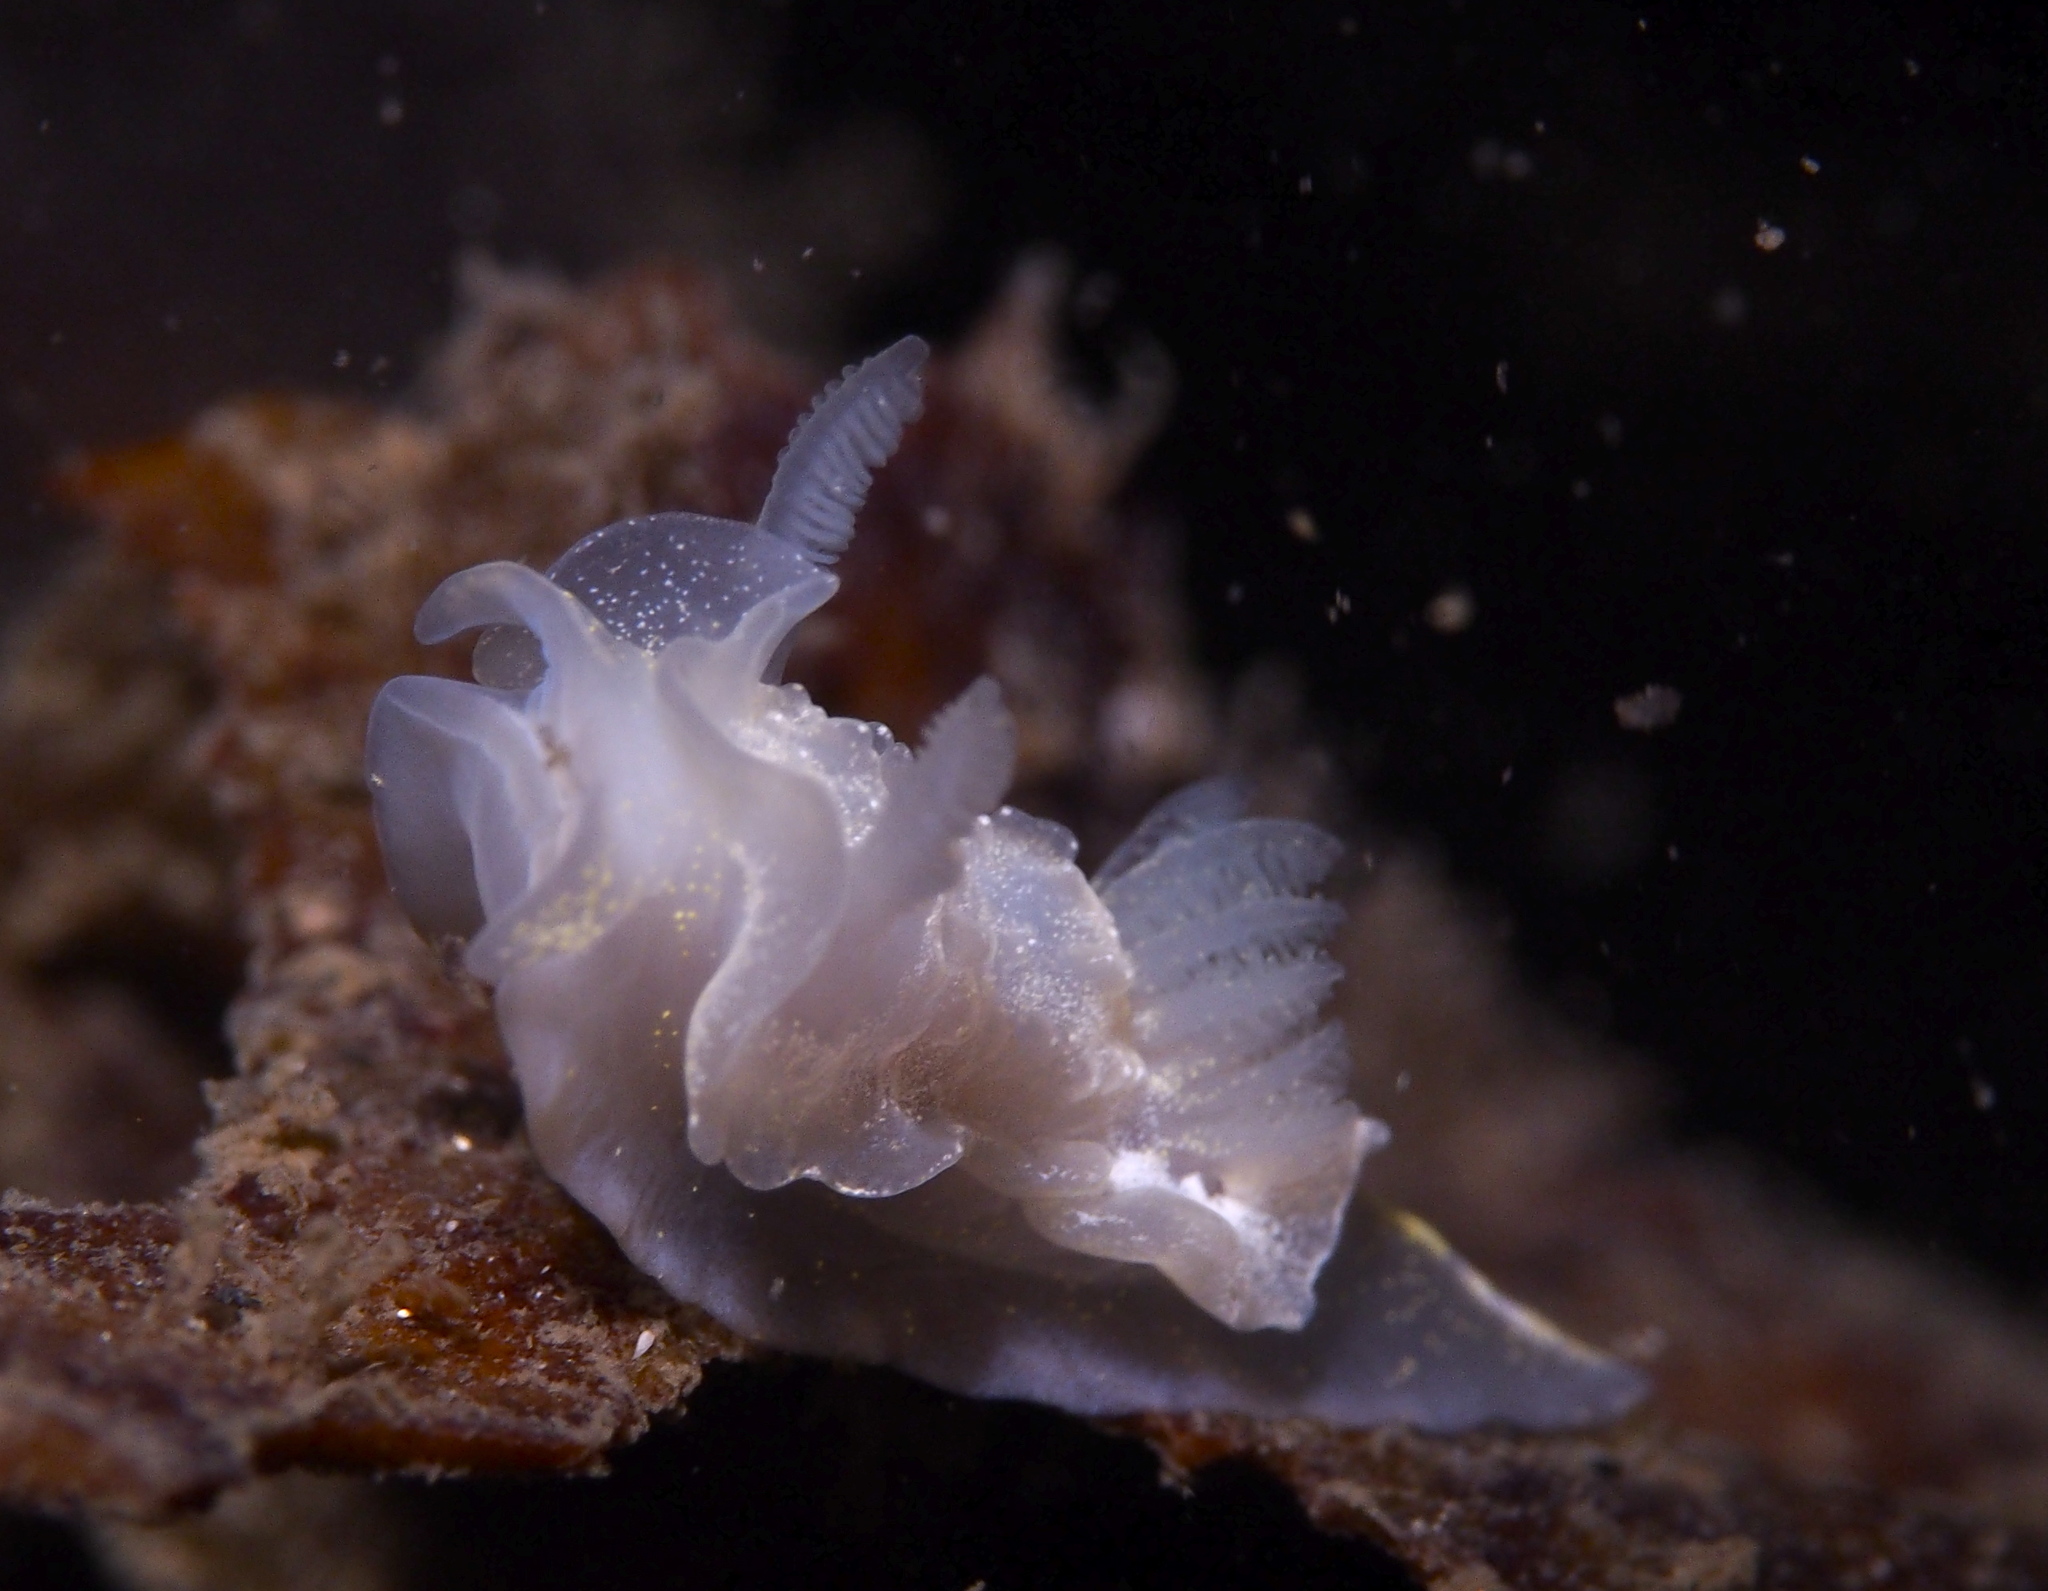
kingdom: Animalia
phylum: Mollusca
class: Gastropoda
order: Nudibranchia
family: Goniodorididae
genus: Okenia
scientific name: Okenia
